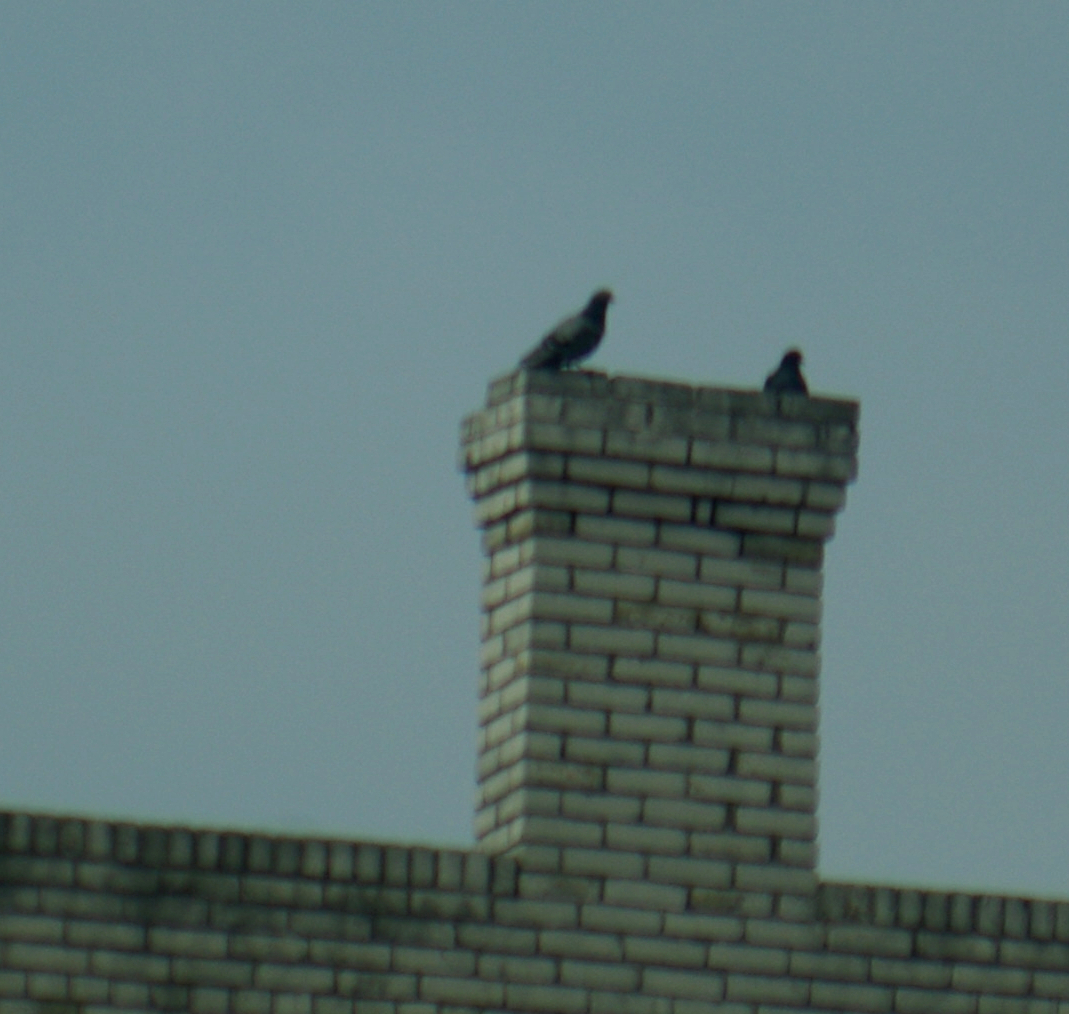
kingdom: Animalia
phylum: Chordata
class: Aves
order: Columbiformes
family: Columbidae
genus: Columba
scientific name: Columba livia
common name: Rock pigeon
